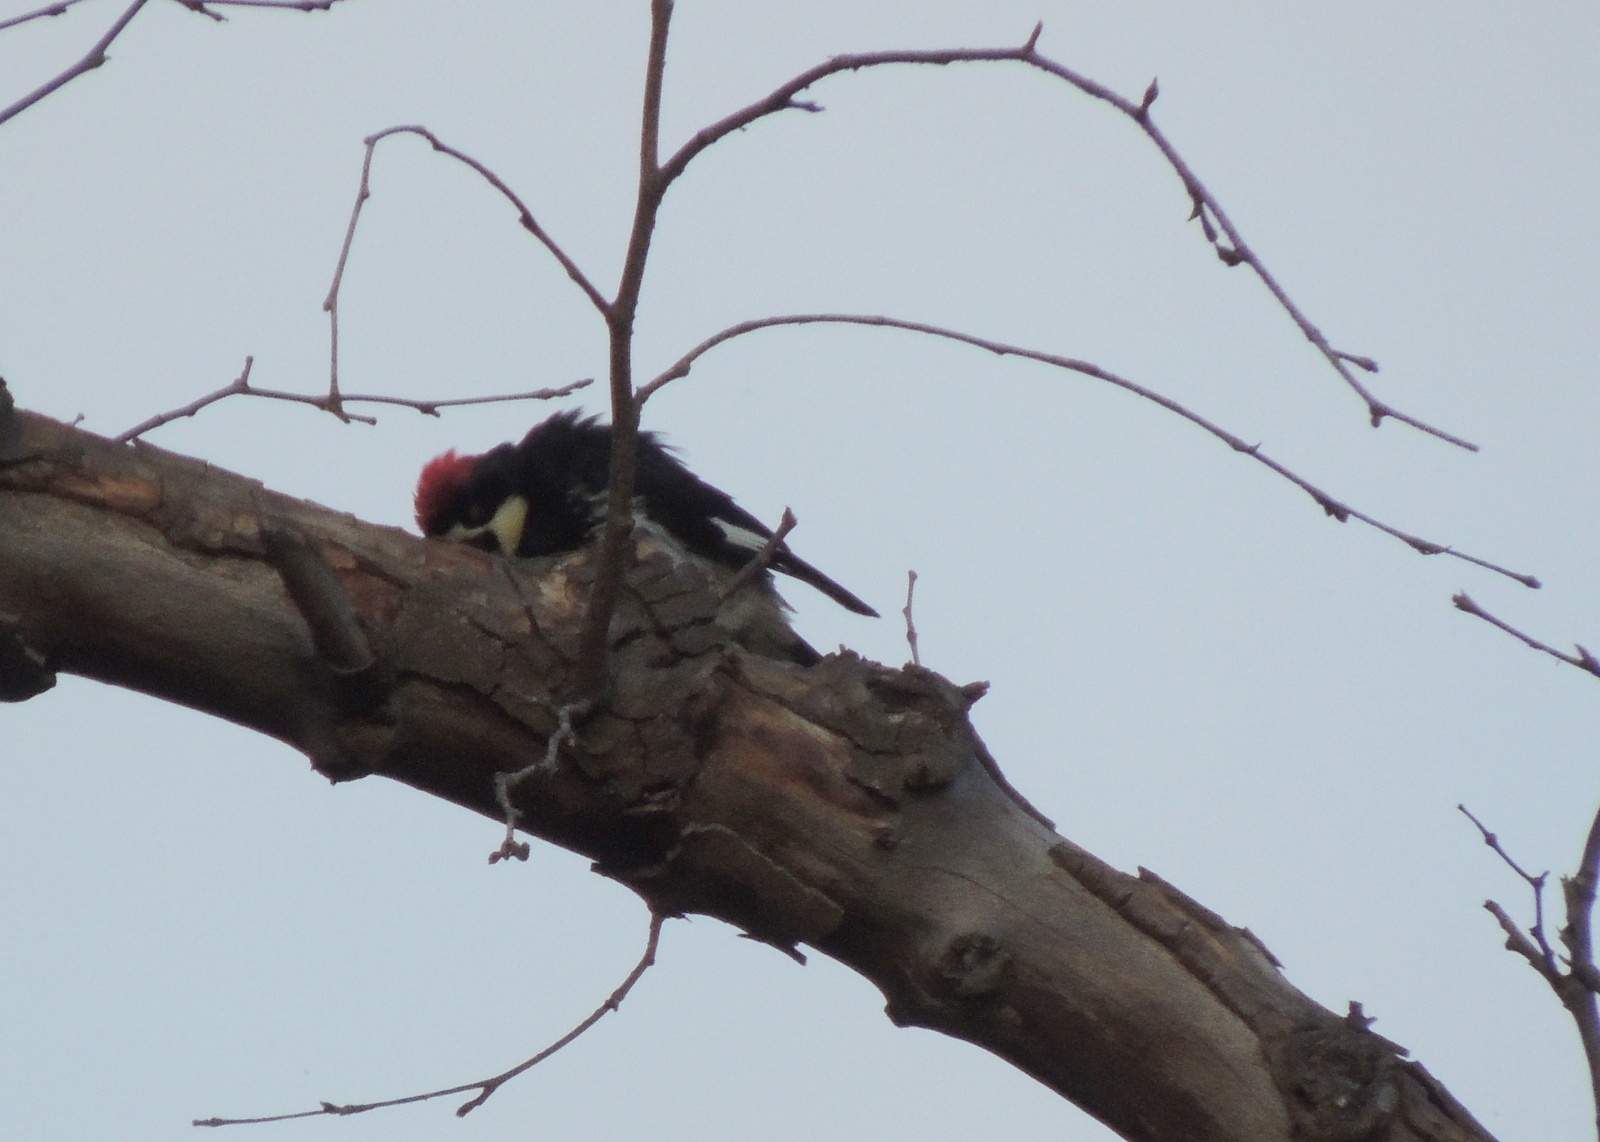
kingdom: Animalia
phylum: Chordata
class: Aves
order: Piciformes
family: Picidae
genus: Melanerpes
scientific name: Melanerpes formicivorus
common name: Acorn woodpecker
